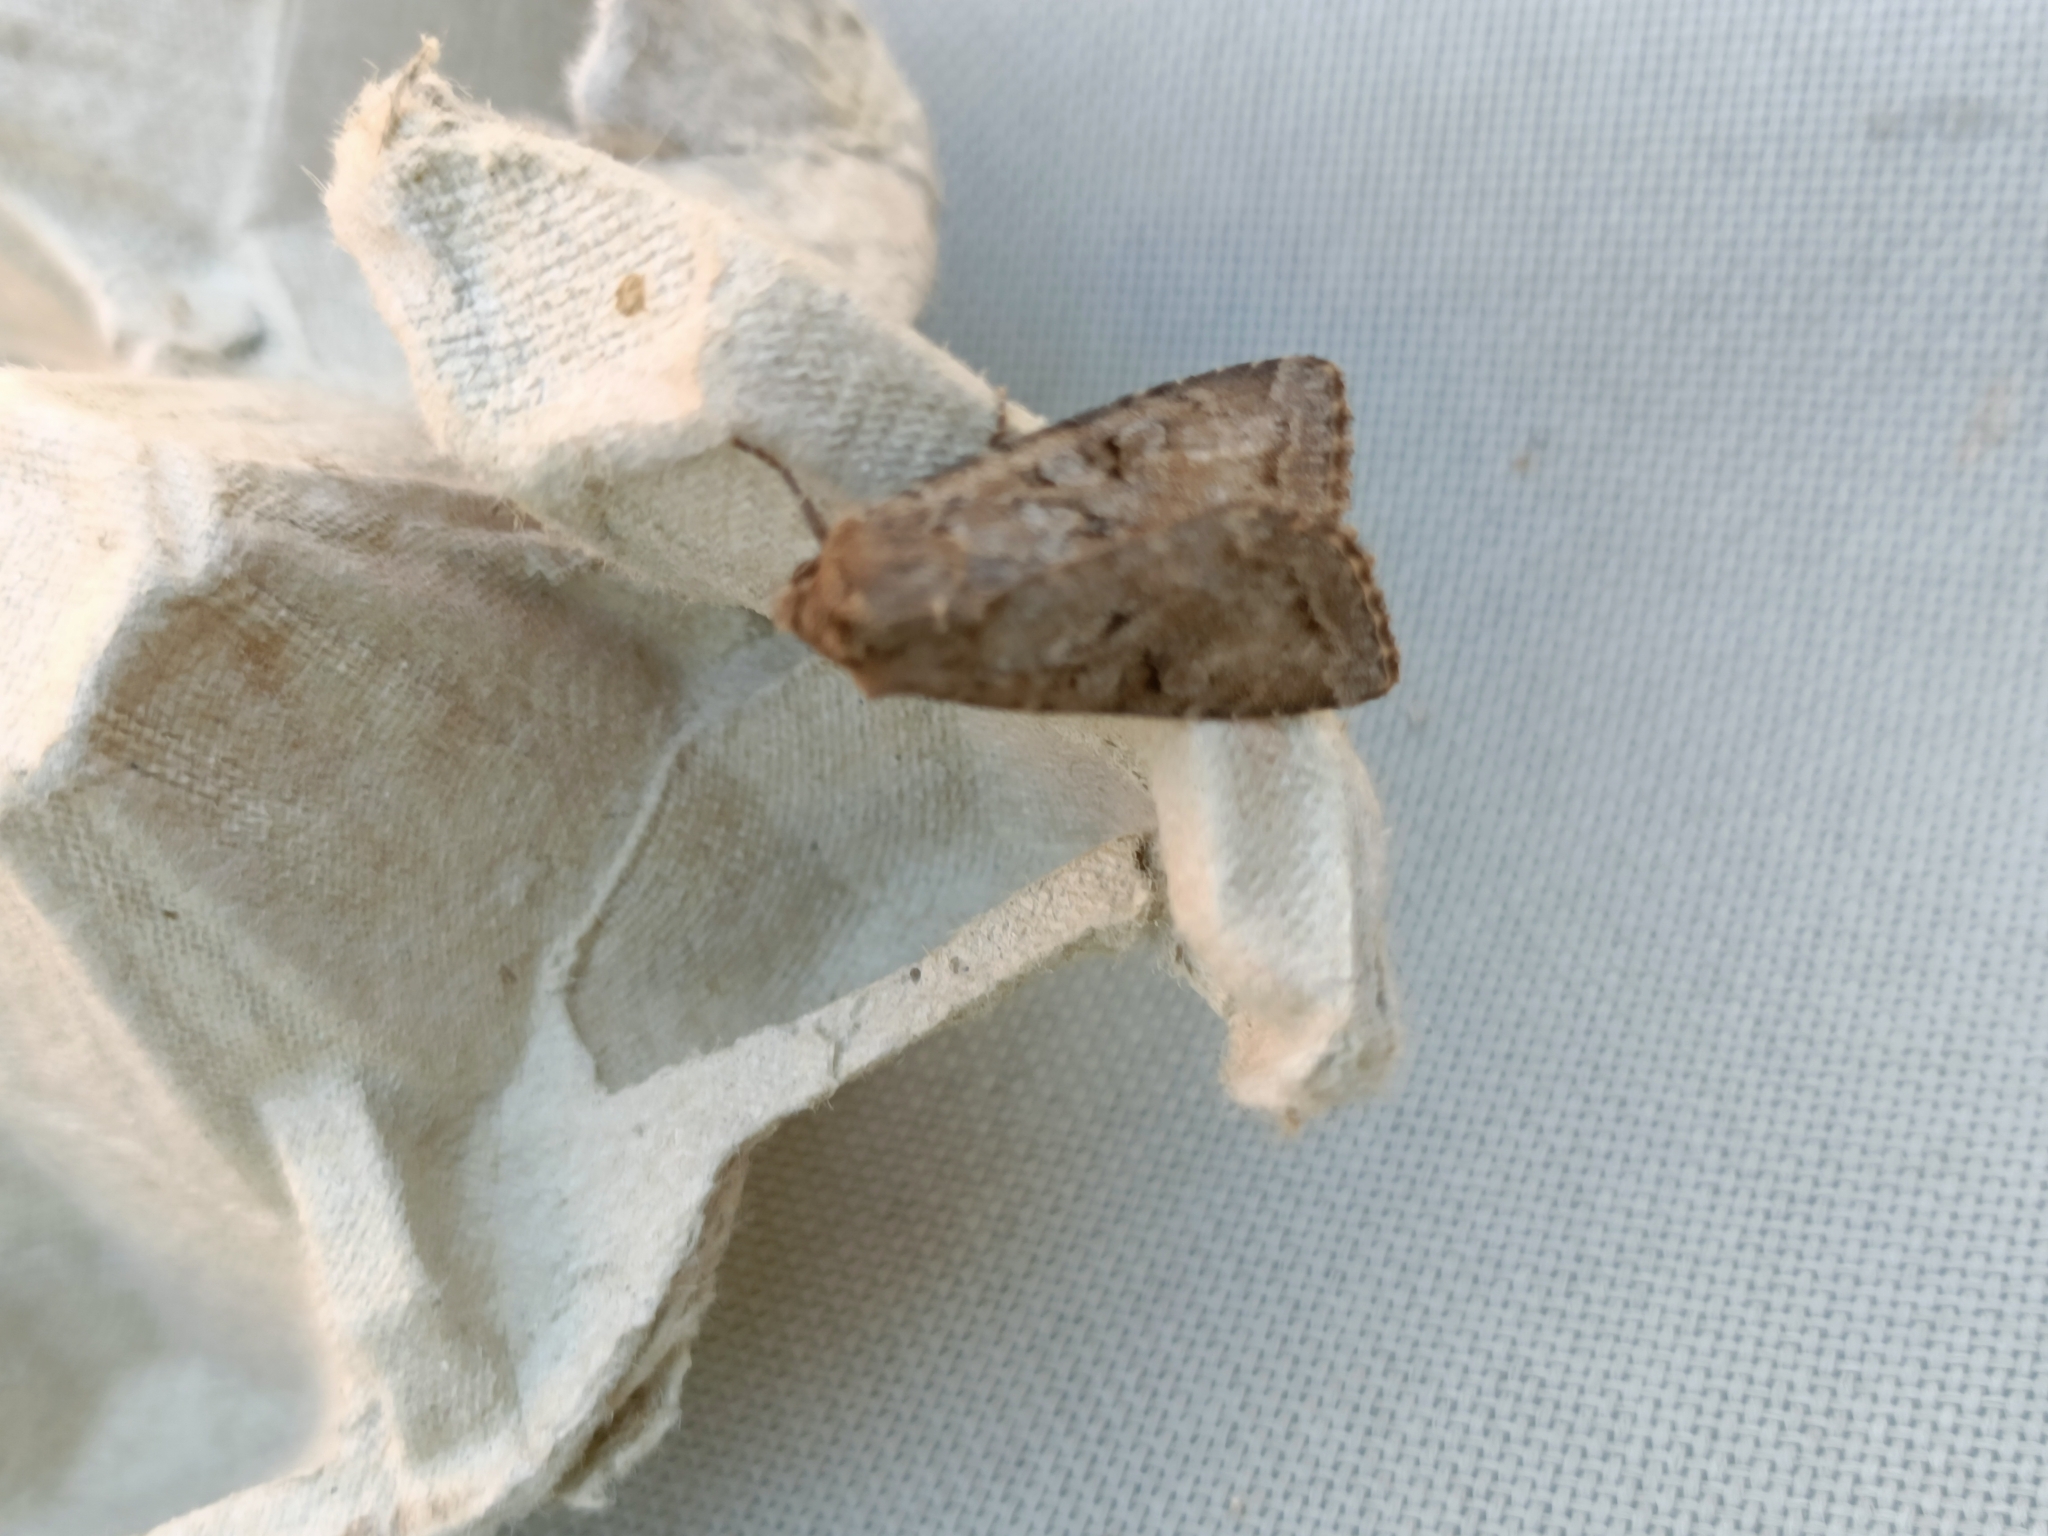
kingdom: Animalia
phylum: Arthropoda
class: Insecta
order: Lepidoptera
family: Noctuidae
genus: Apterogenum
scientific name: Apterogenum ypsillon
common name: Dingy shears
